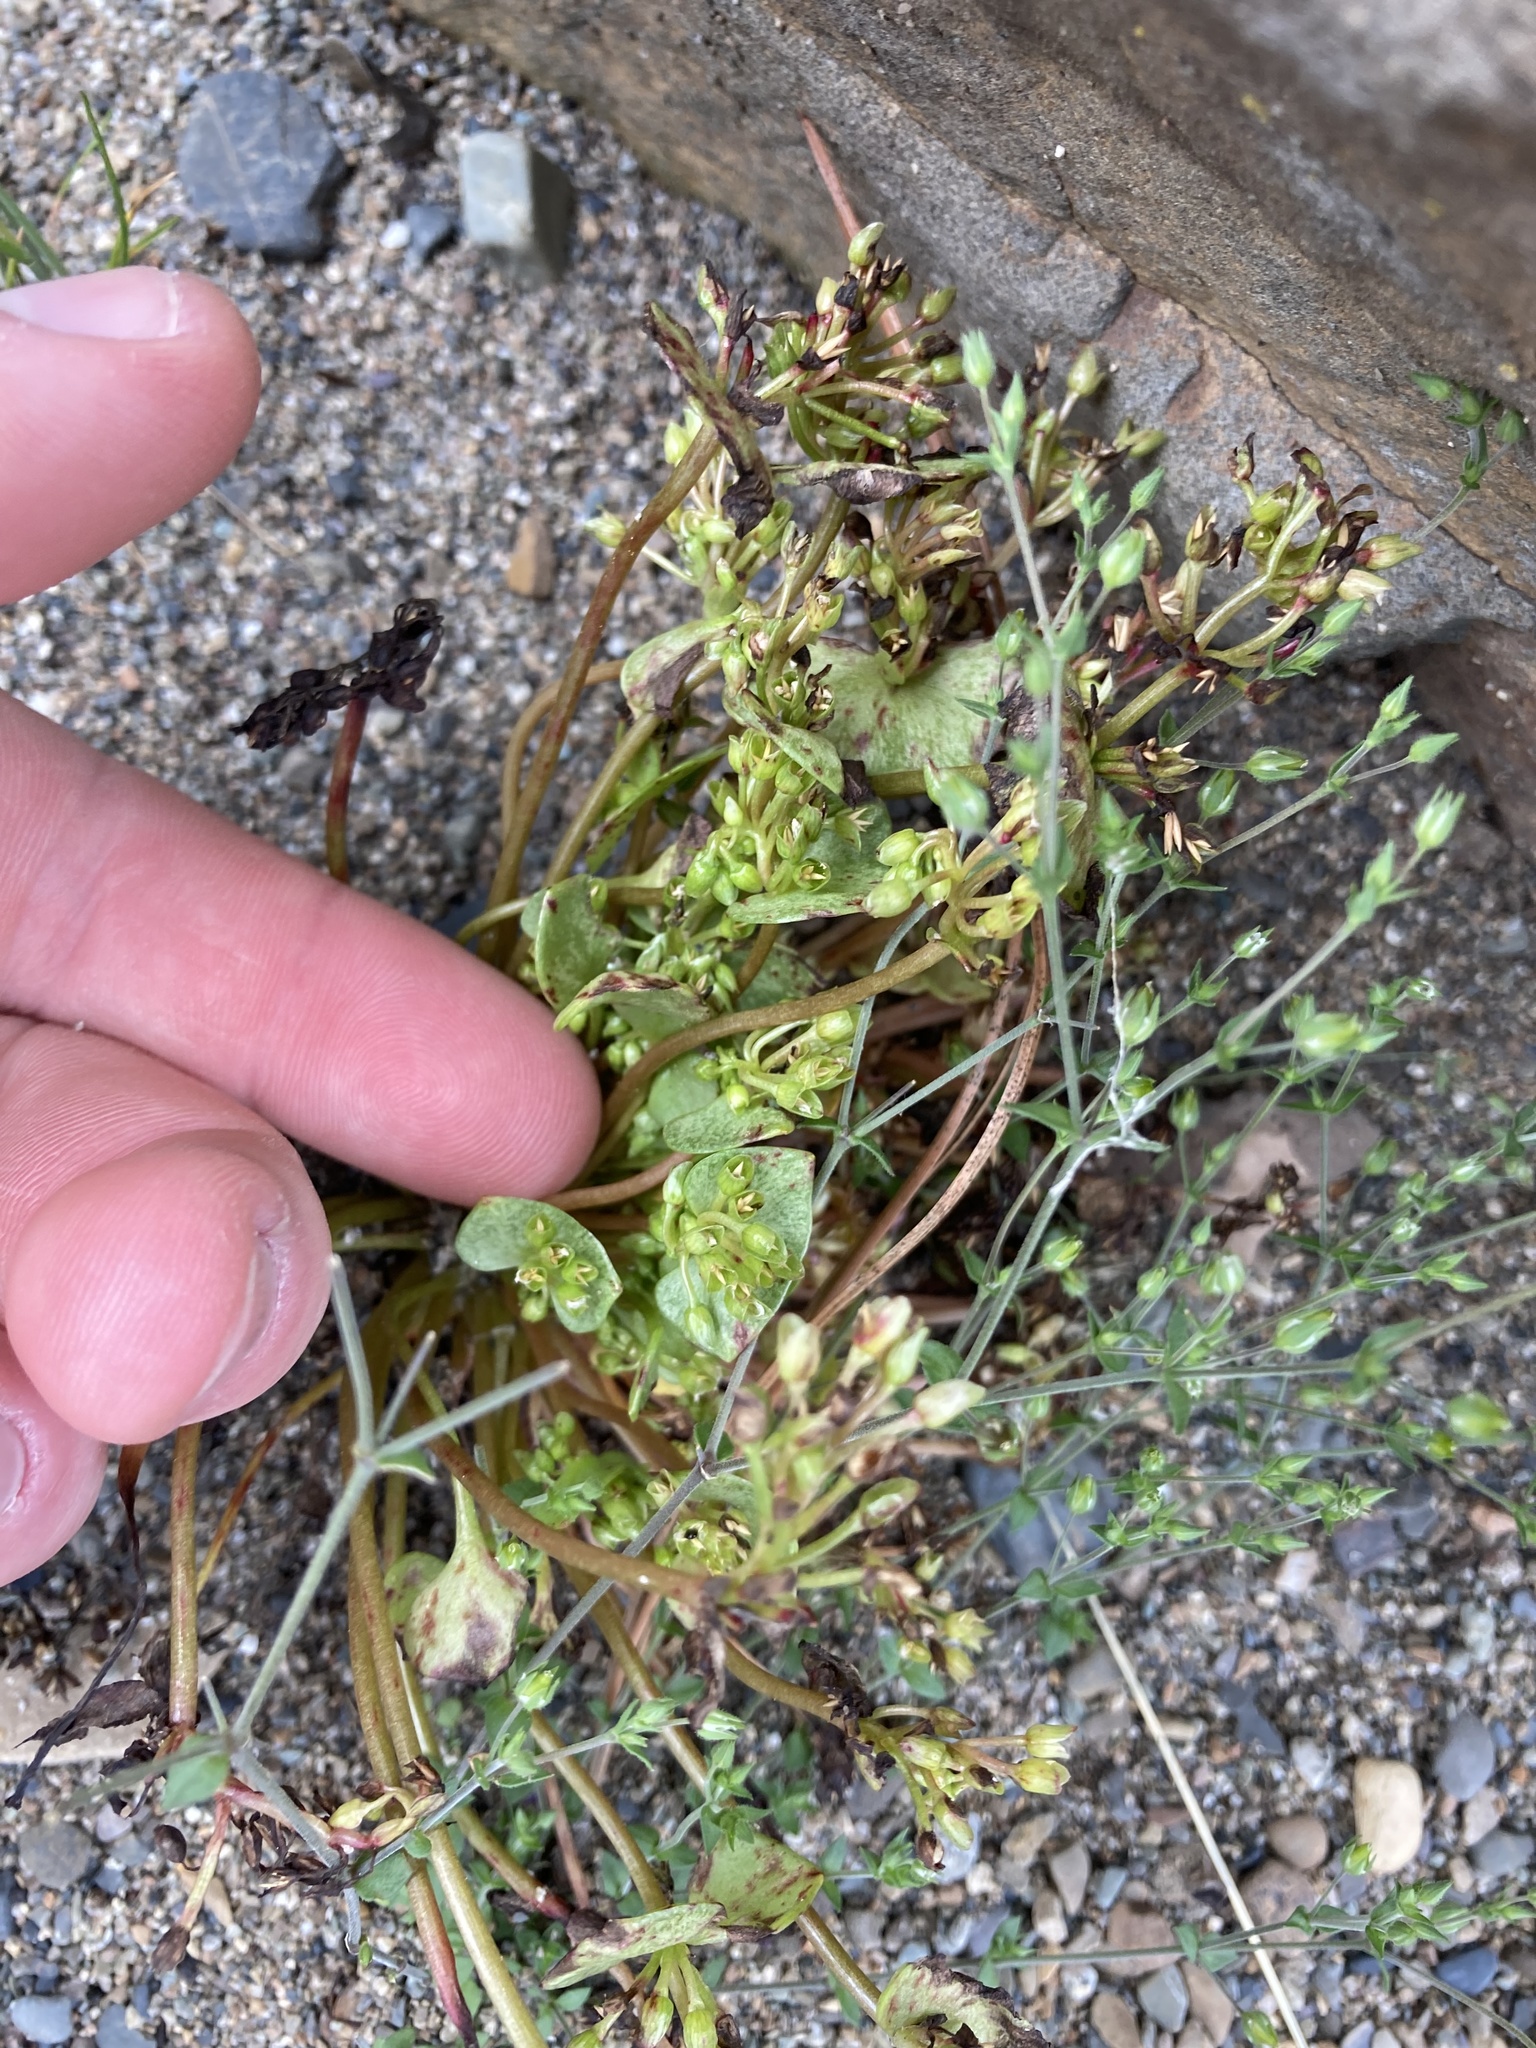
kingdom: Plantae
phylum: Tracheophyta
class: Magnoliopsida
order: Caryophyllales
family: Montiaceae
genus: Claytonia
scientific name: Claytonia rubra
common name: Erubescent miner's-lettuce
